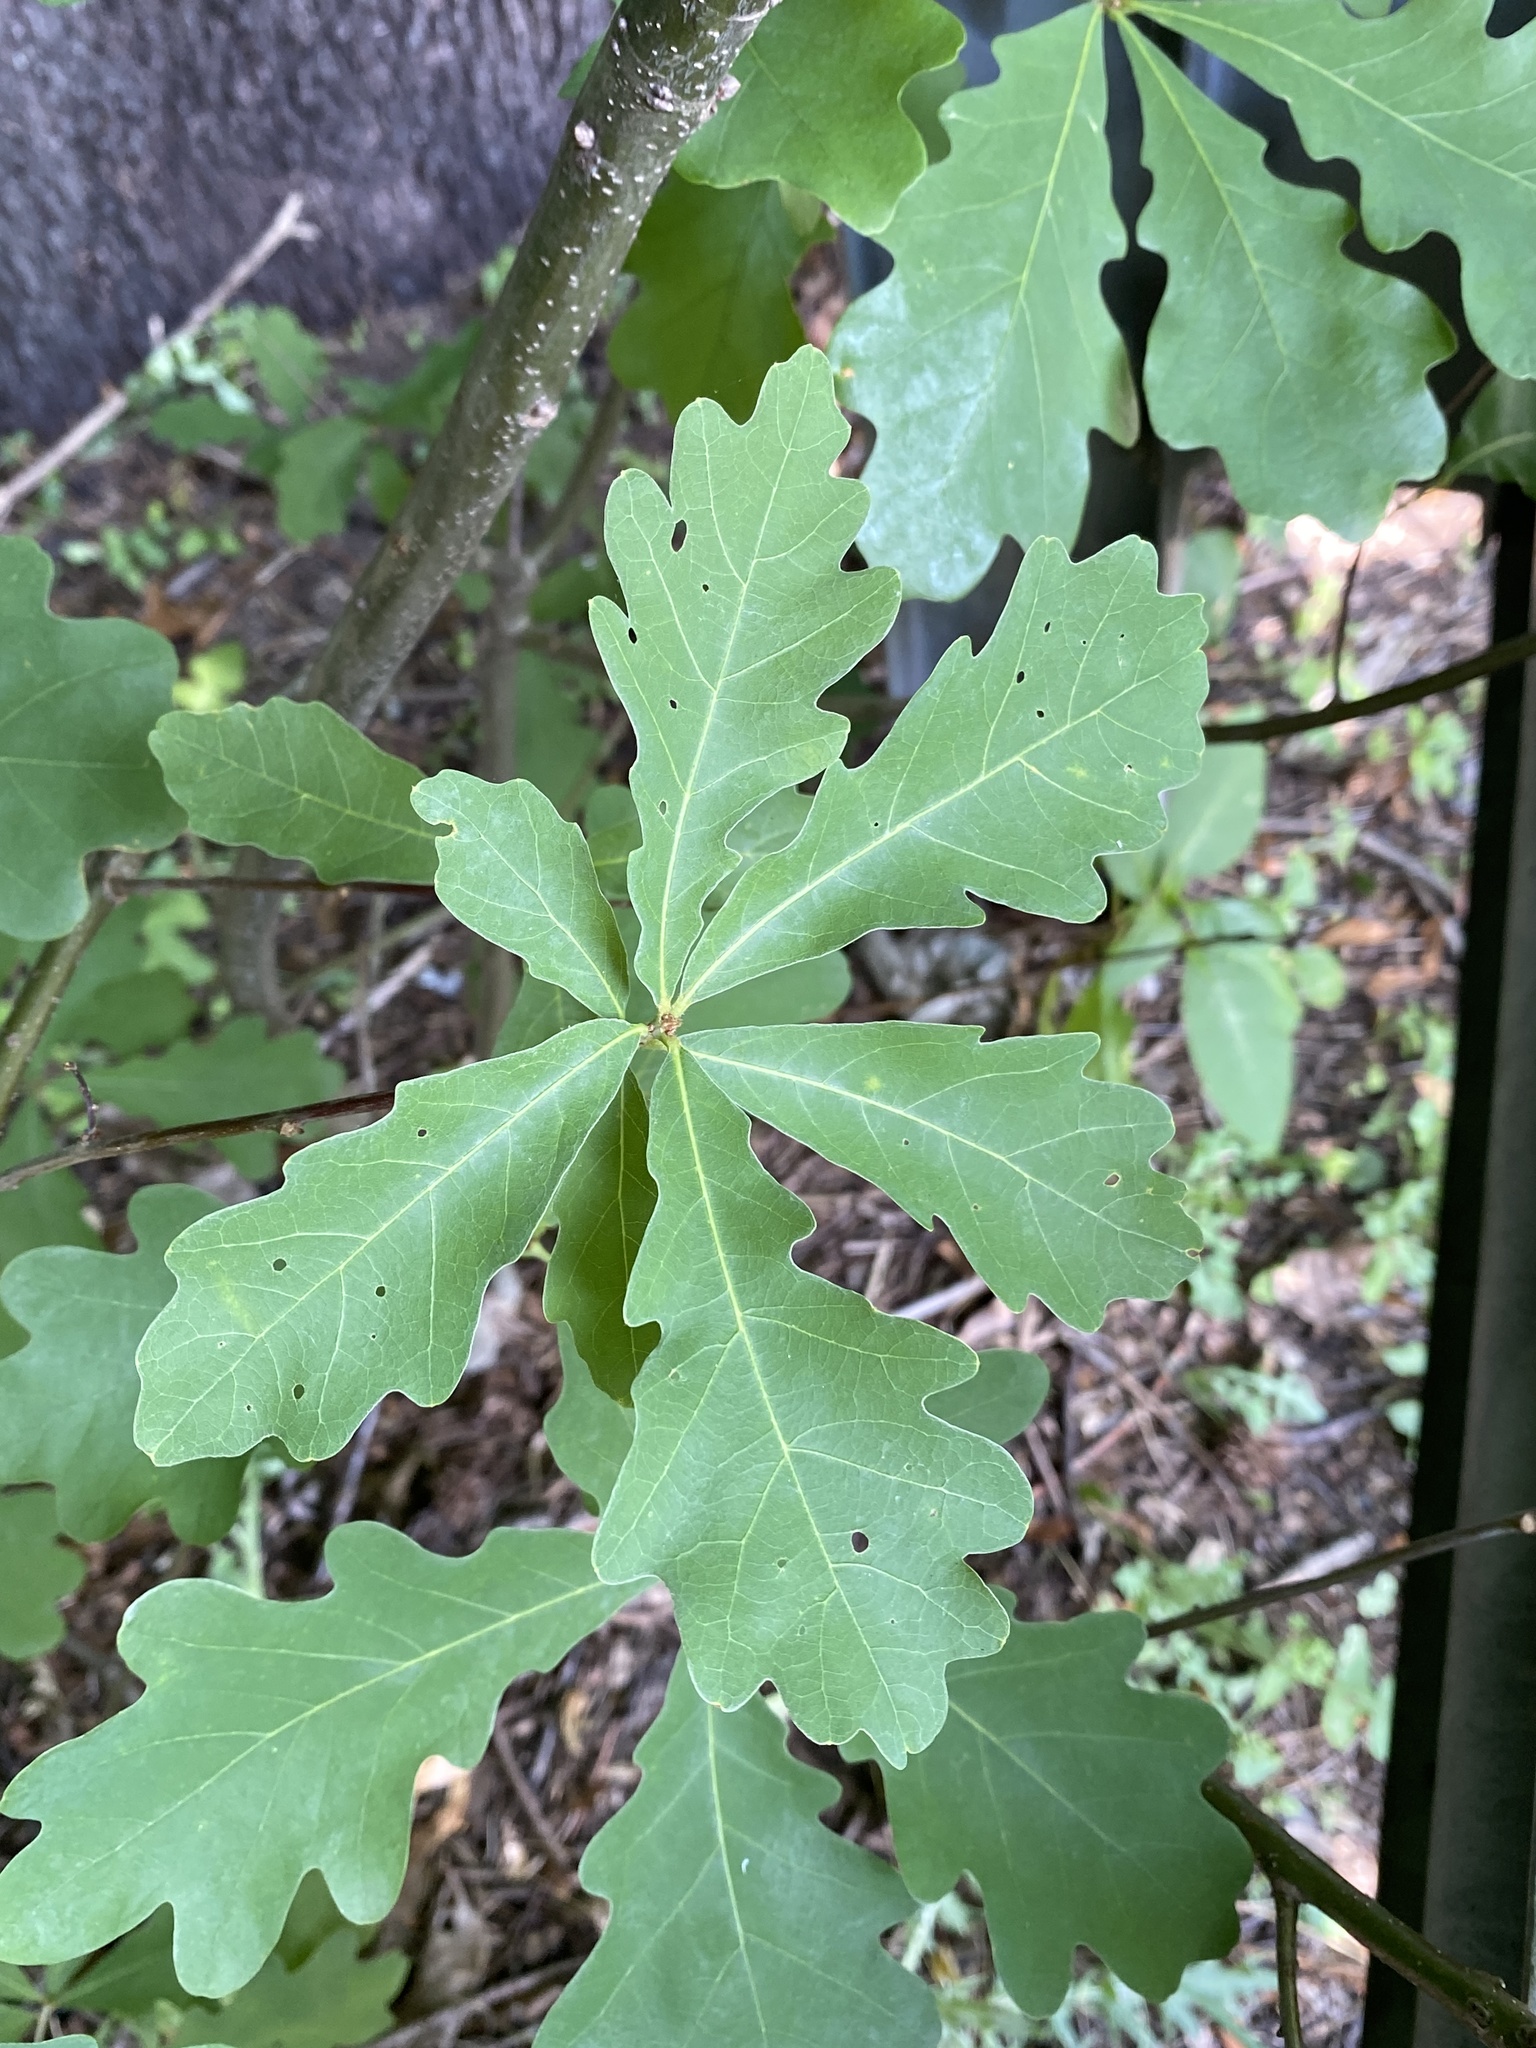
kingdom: Plantae
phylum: Tracheophyta
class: Magnoliopsida
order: Fagales
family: Fagaceae
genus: Quercus
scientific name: Quercus alba
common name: White oak
